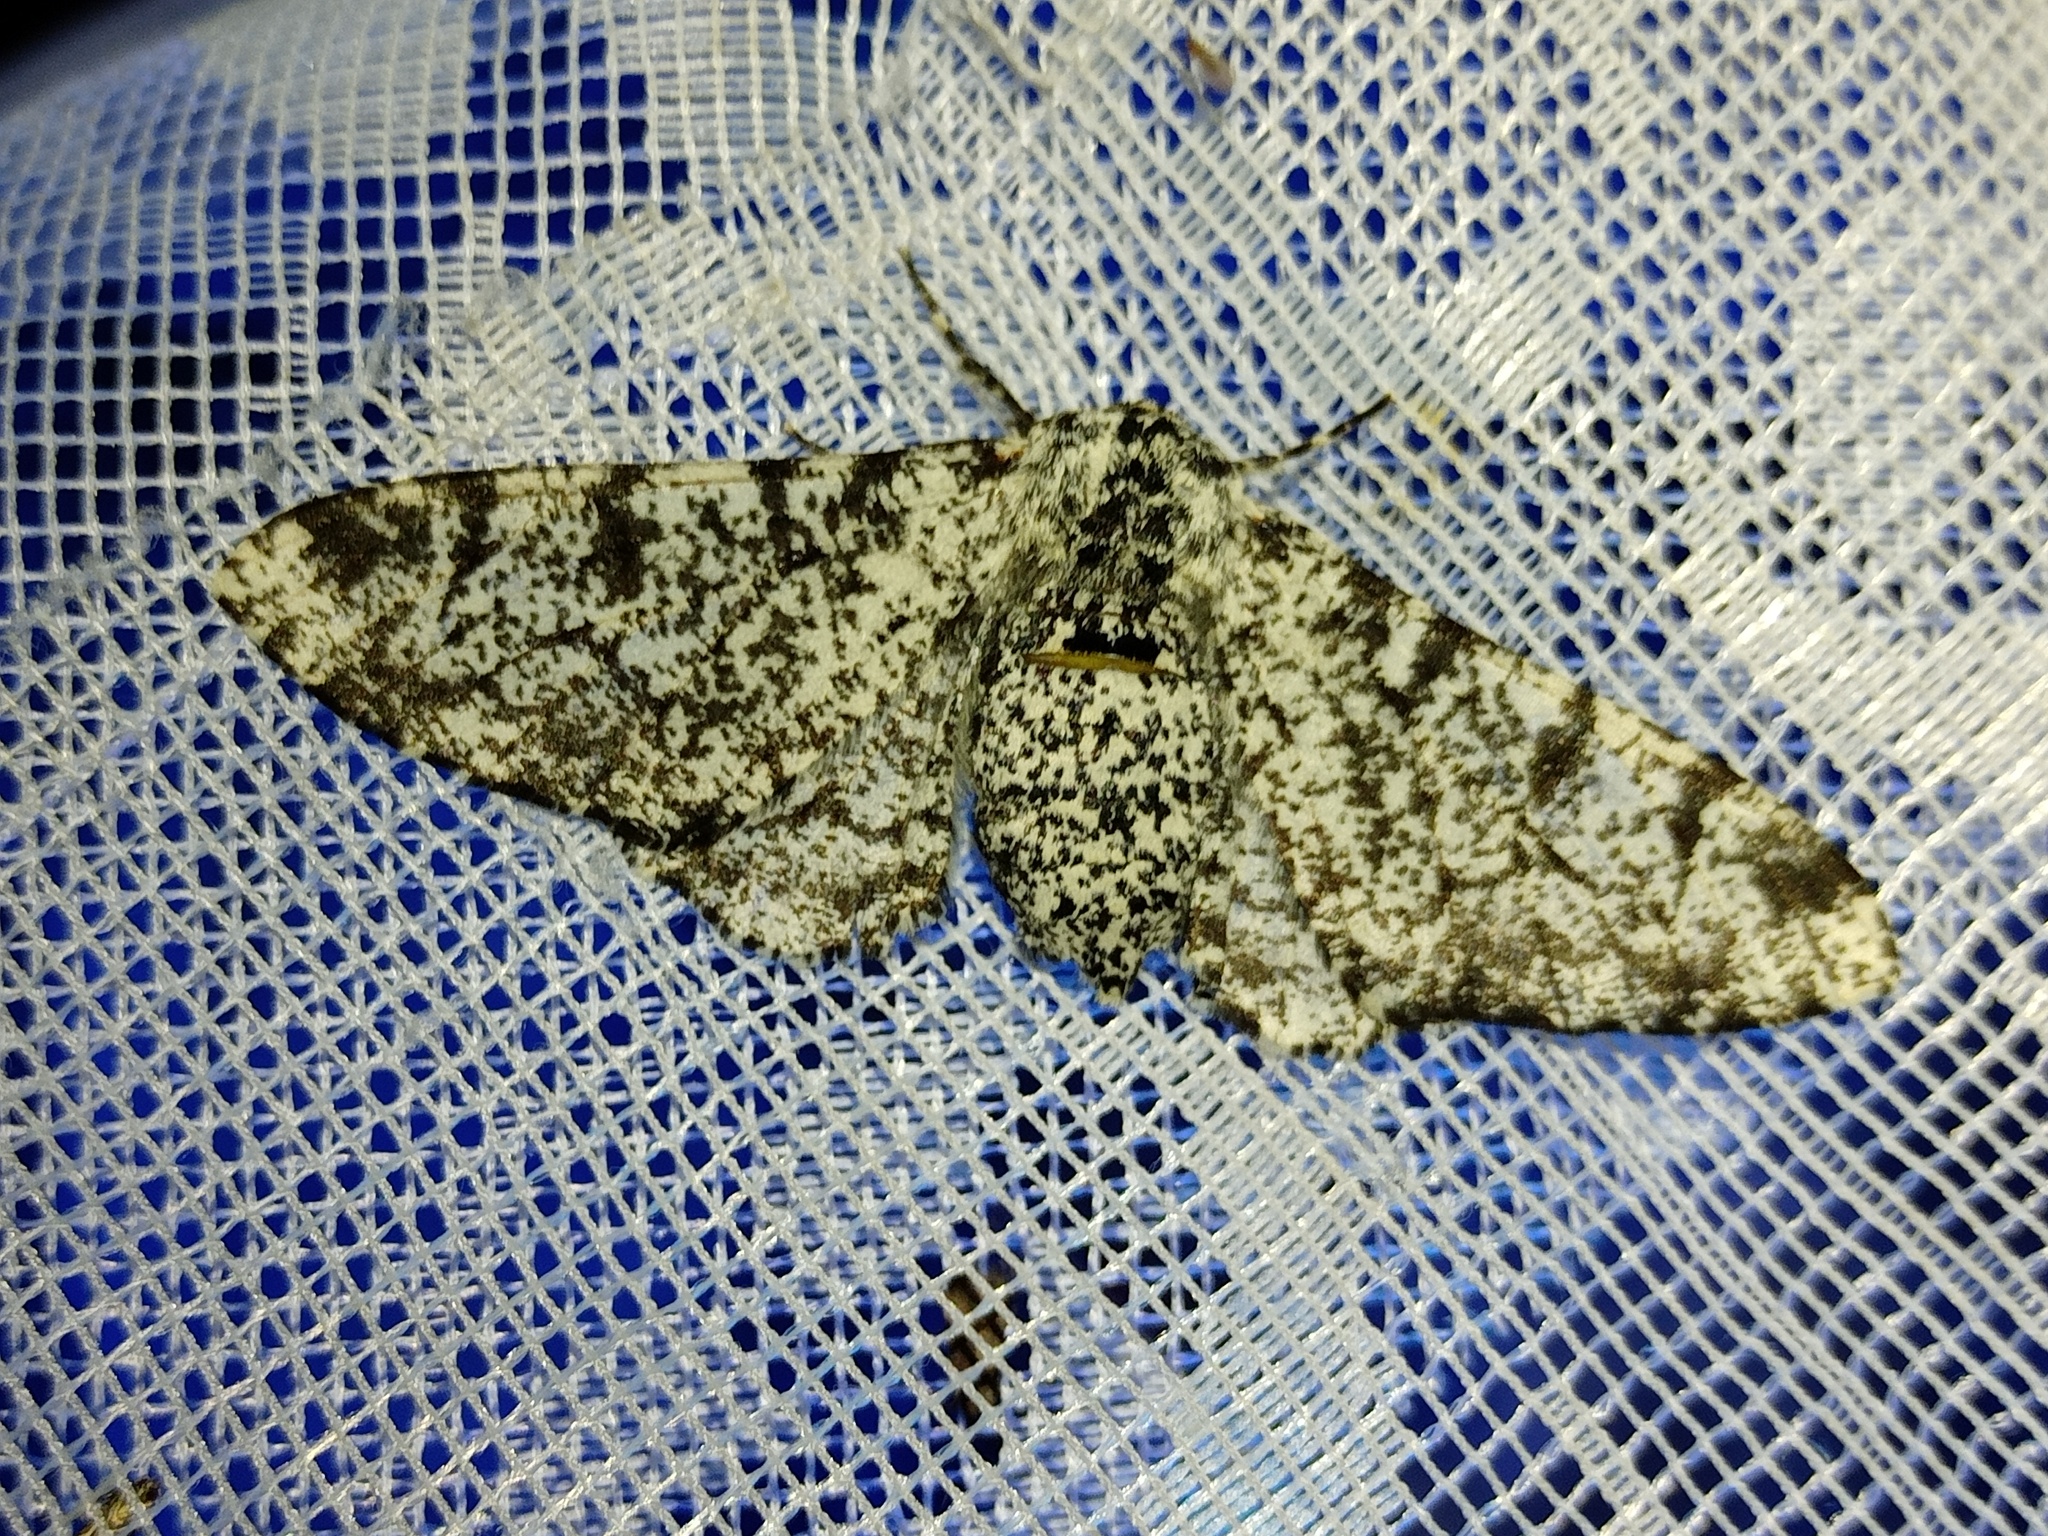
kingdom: Animalia
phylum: Arthropoda
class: Insecta
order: Lepidoptera
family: Geometridae
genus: Biston
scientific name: Biston betularia
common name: Peppered moth
